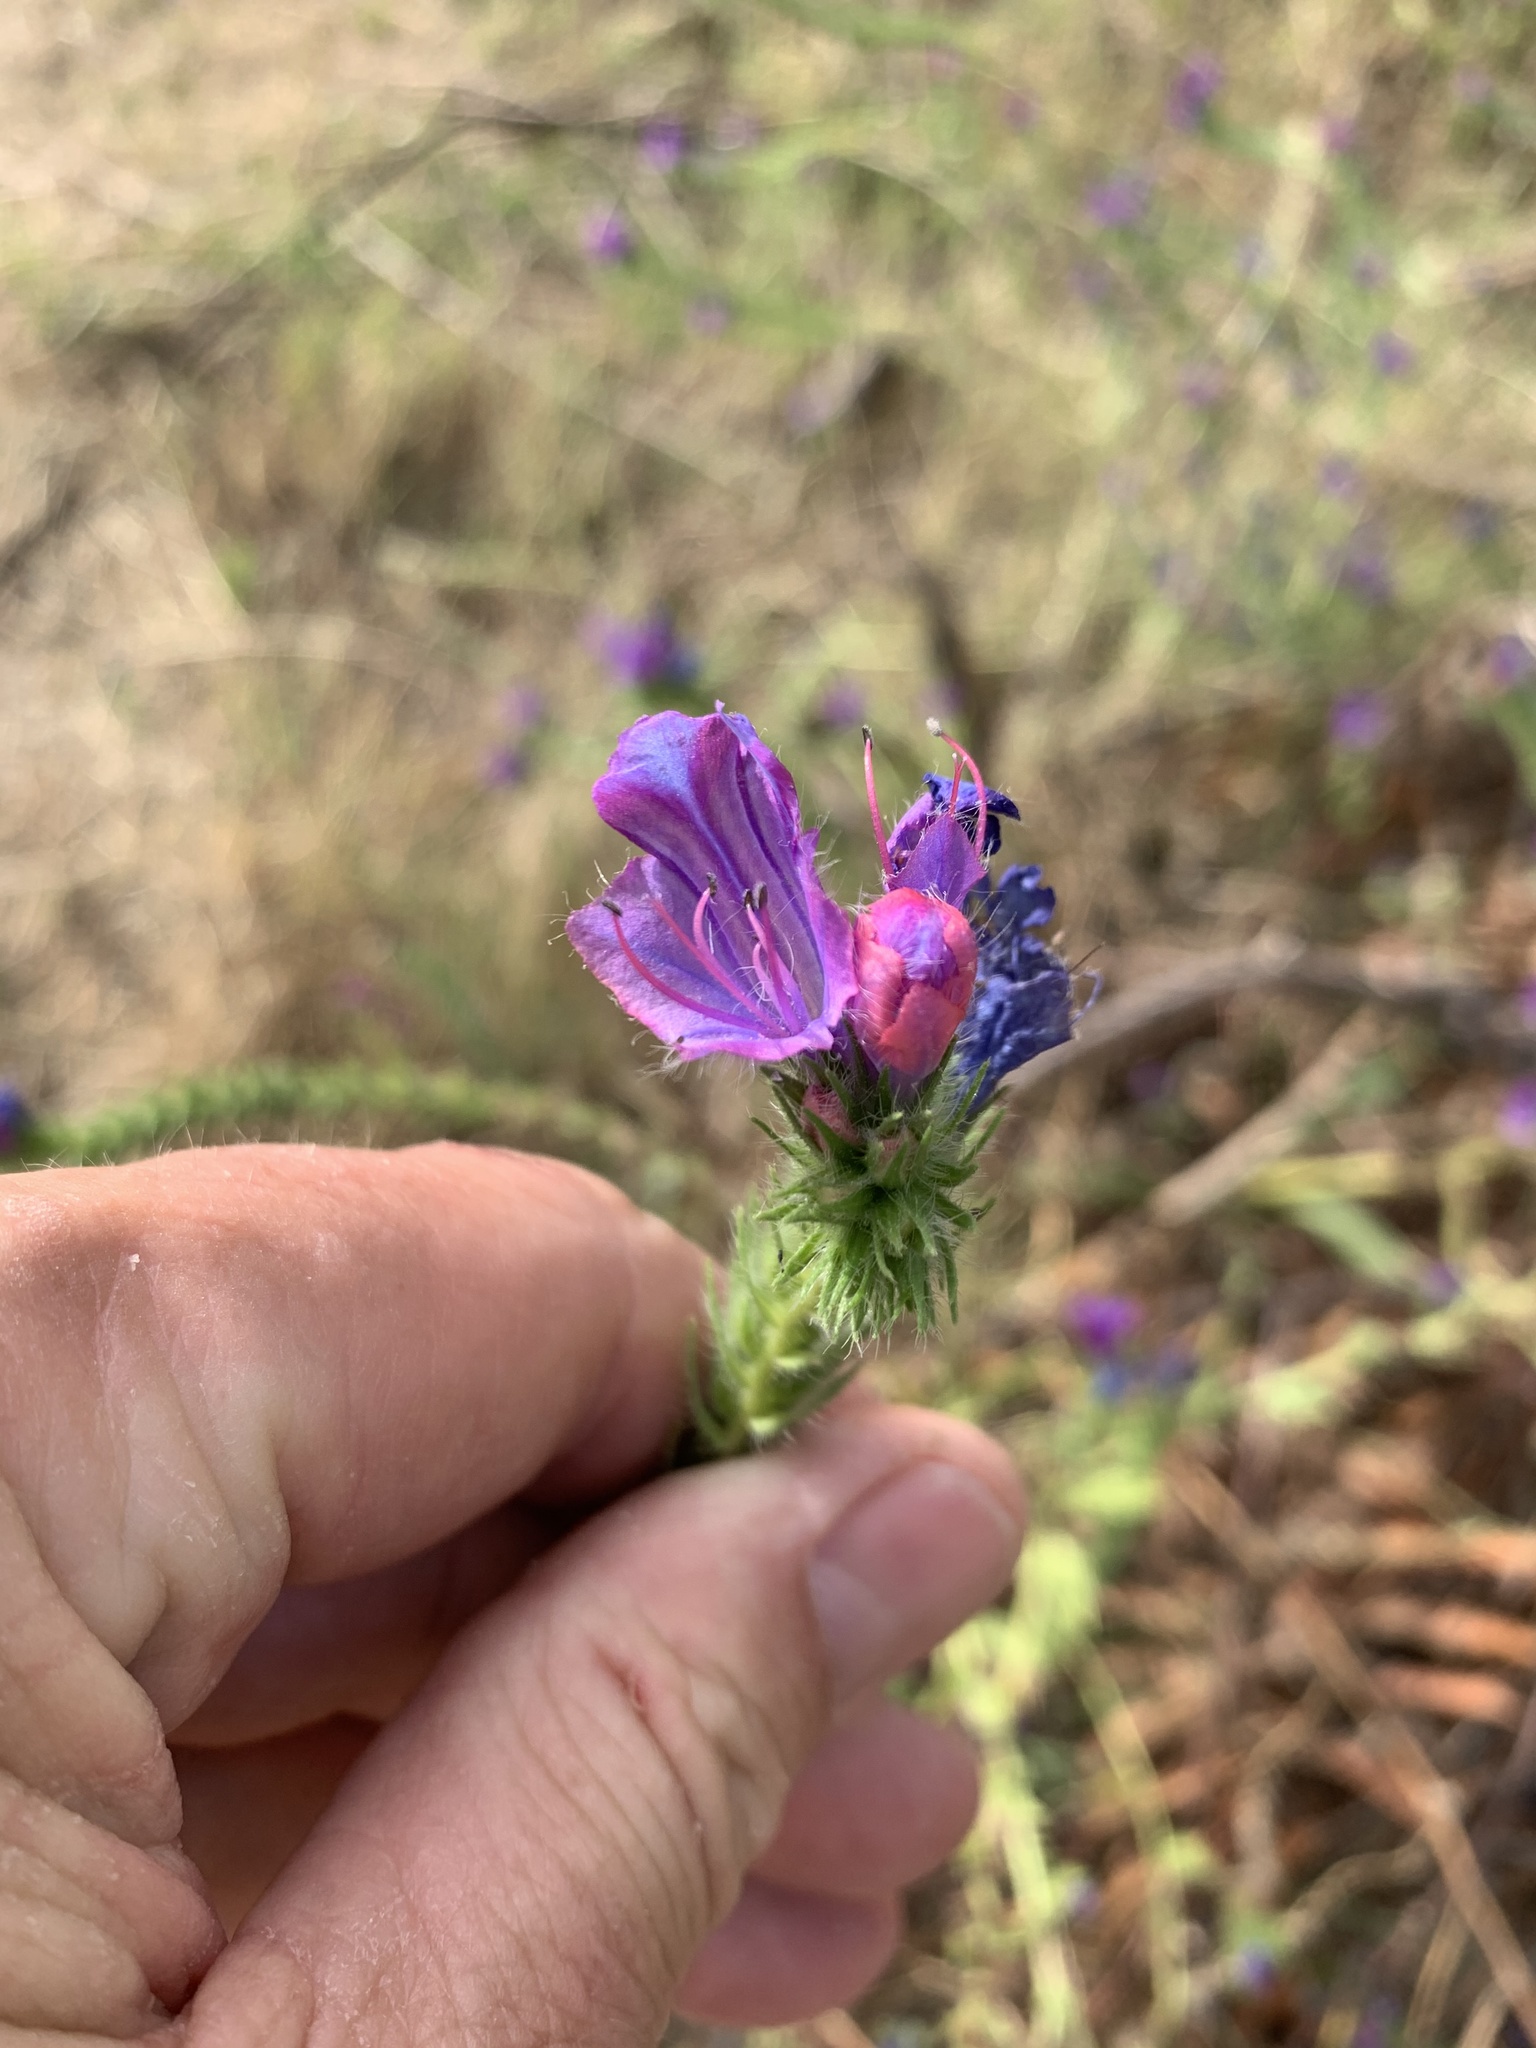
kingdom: Plantae
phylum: Tracheophyta
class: Magnoliopsida
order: Boraginales
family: Boraginaceae
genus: Echium
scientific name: Echium plantagineum
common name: Purple viper's-bugloss
